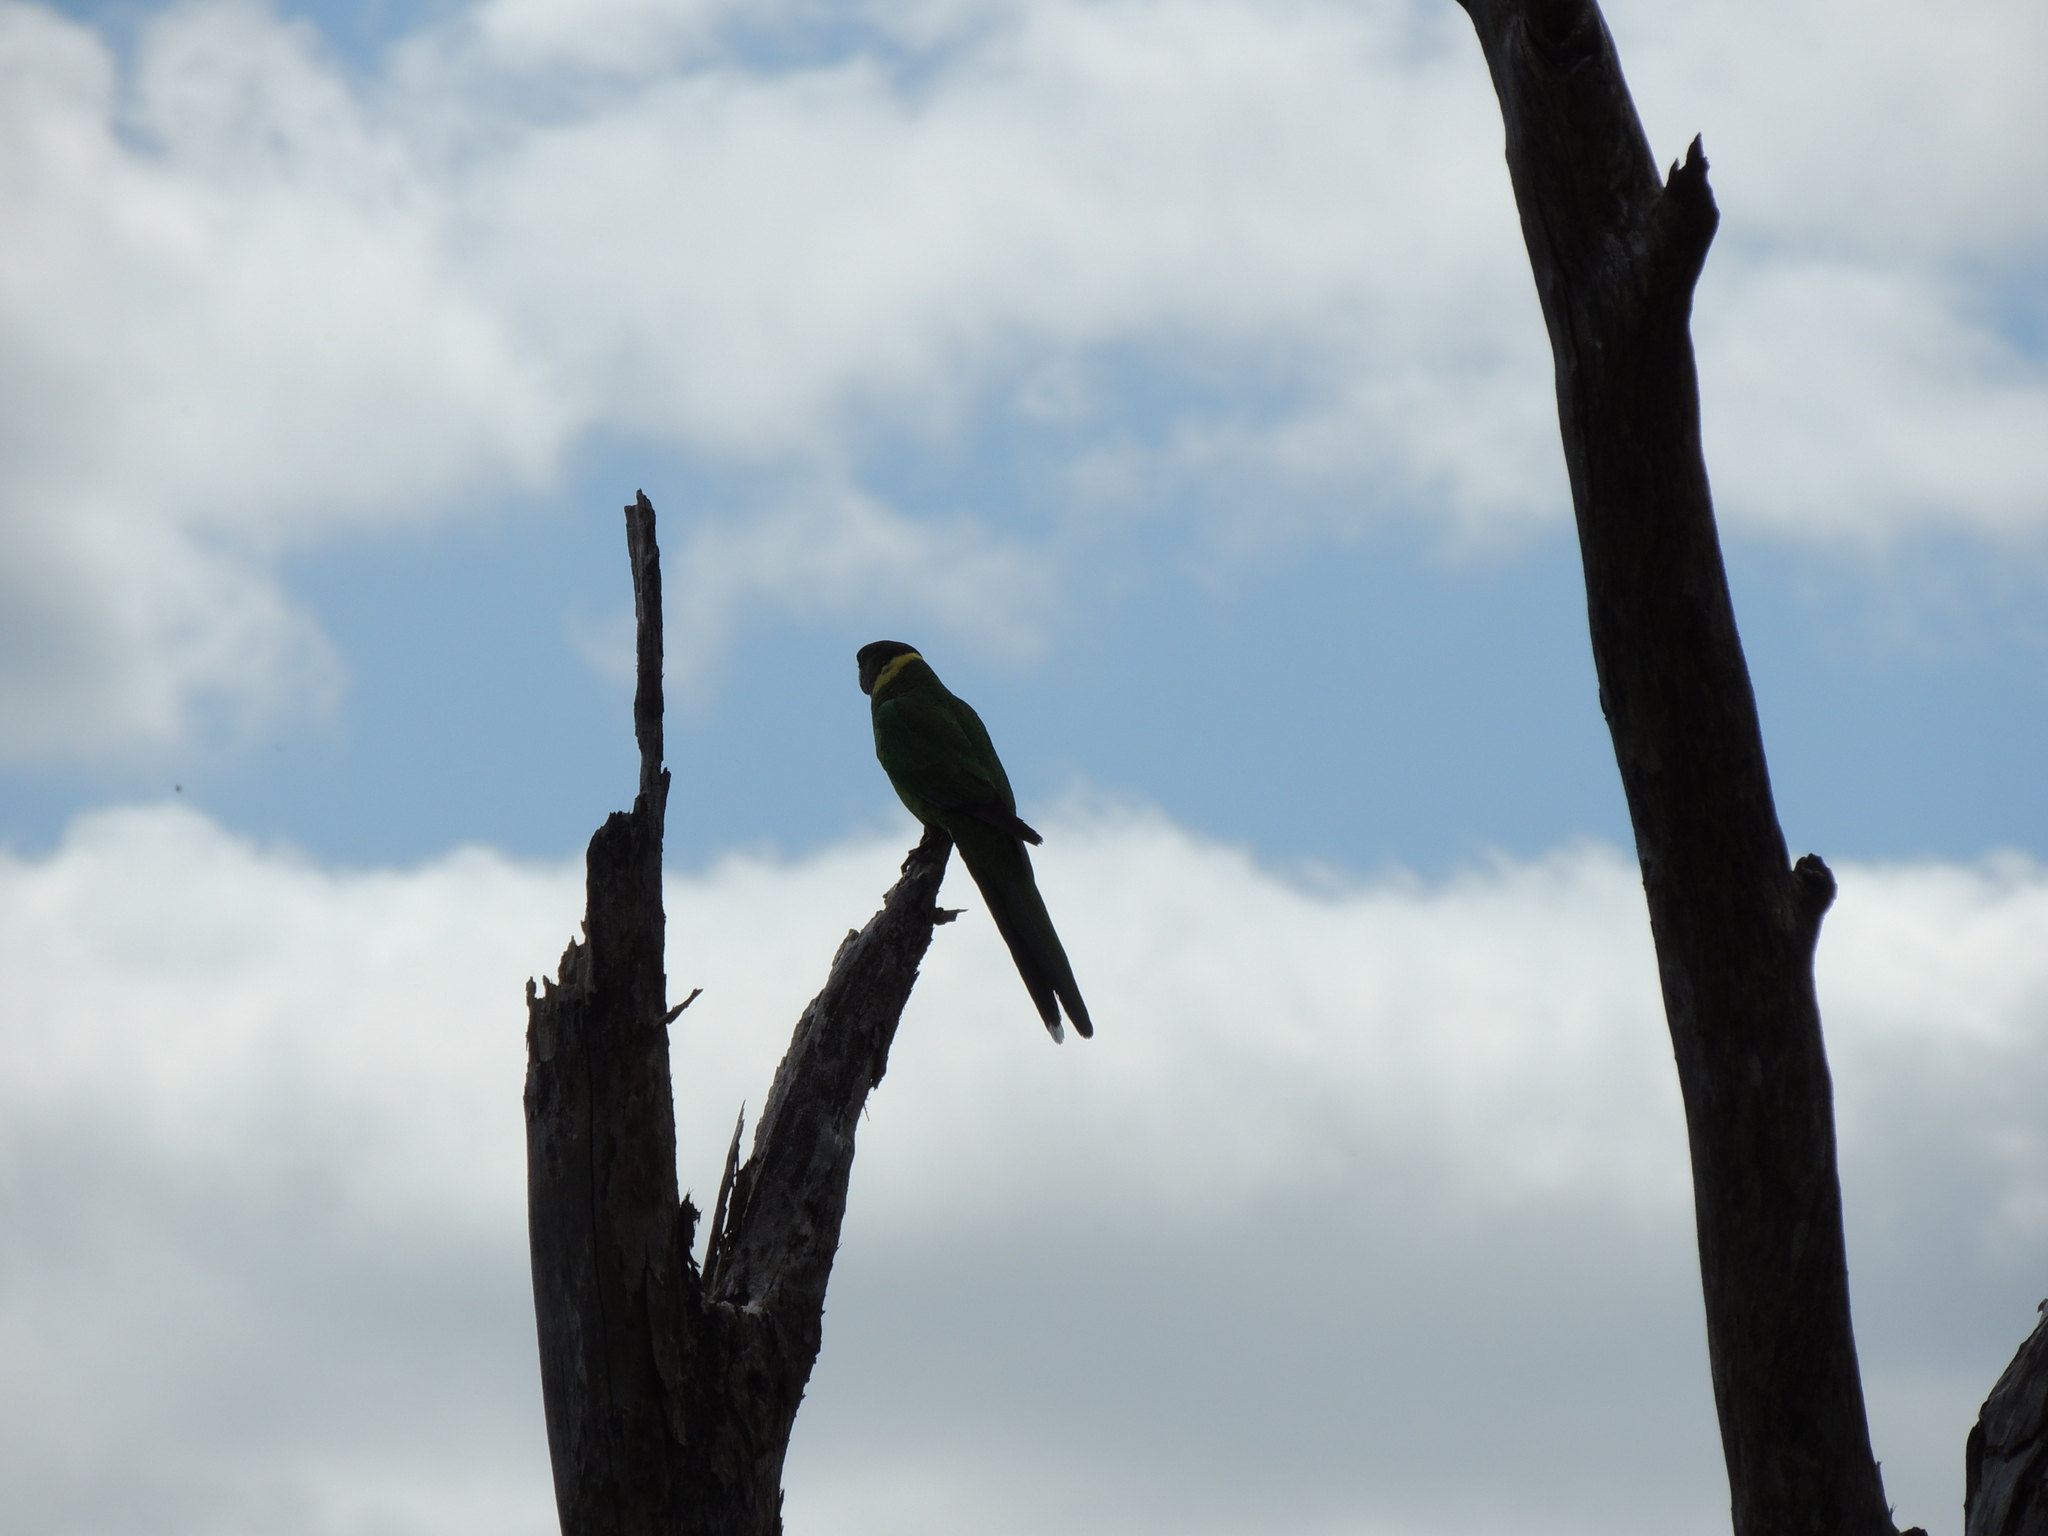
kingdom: Animalia
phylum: Chordata
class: Aves
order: Psittaciformes
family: Psittacidae
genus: Barnardius
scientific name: Barnardius zonarius
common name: Australian ringneck
